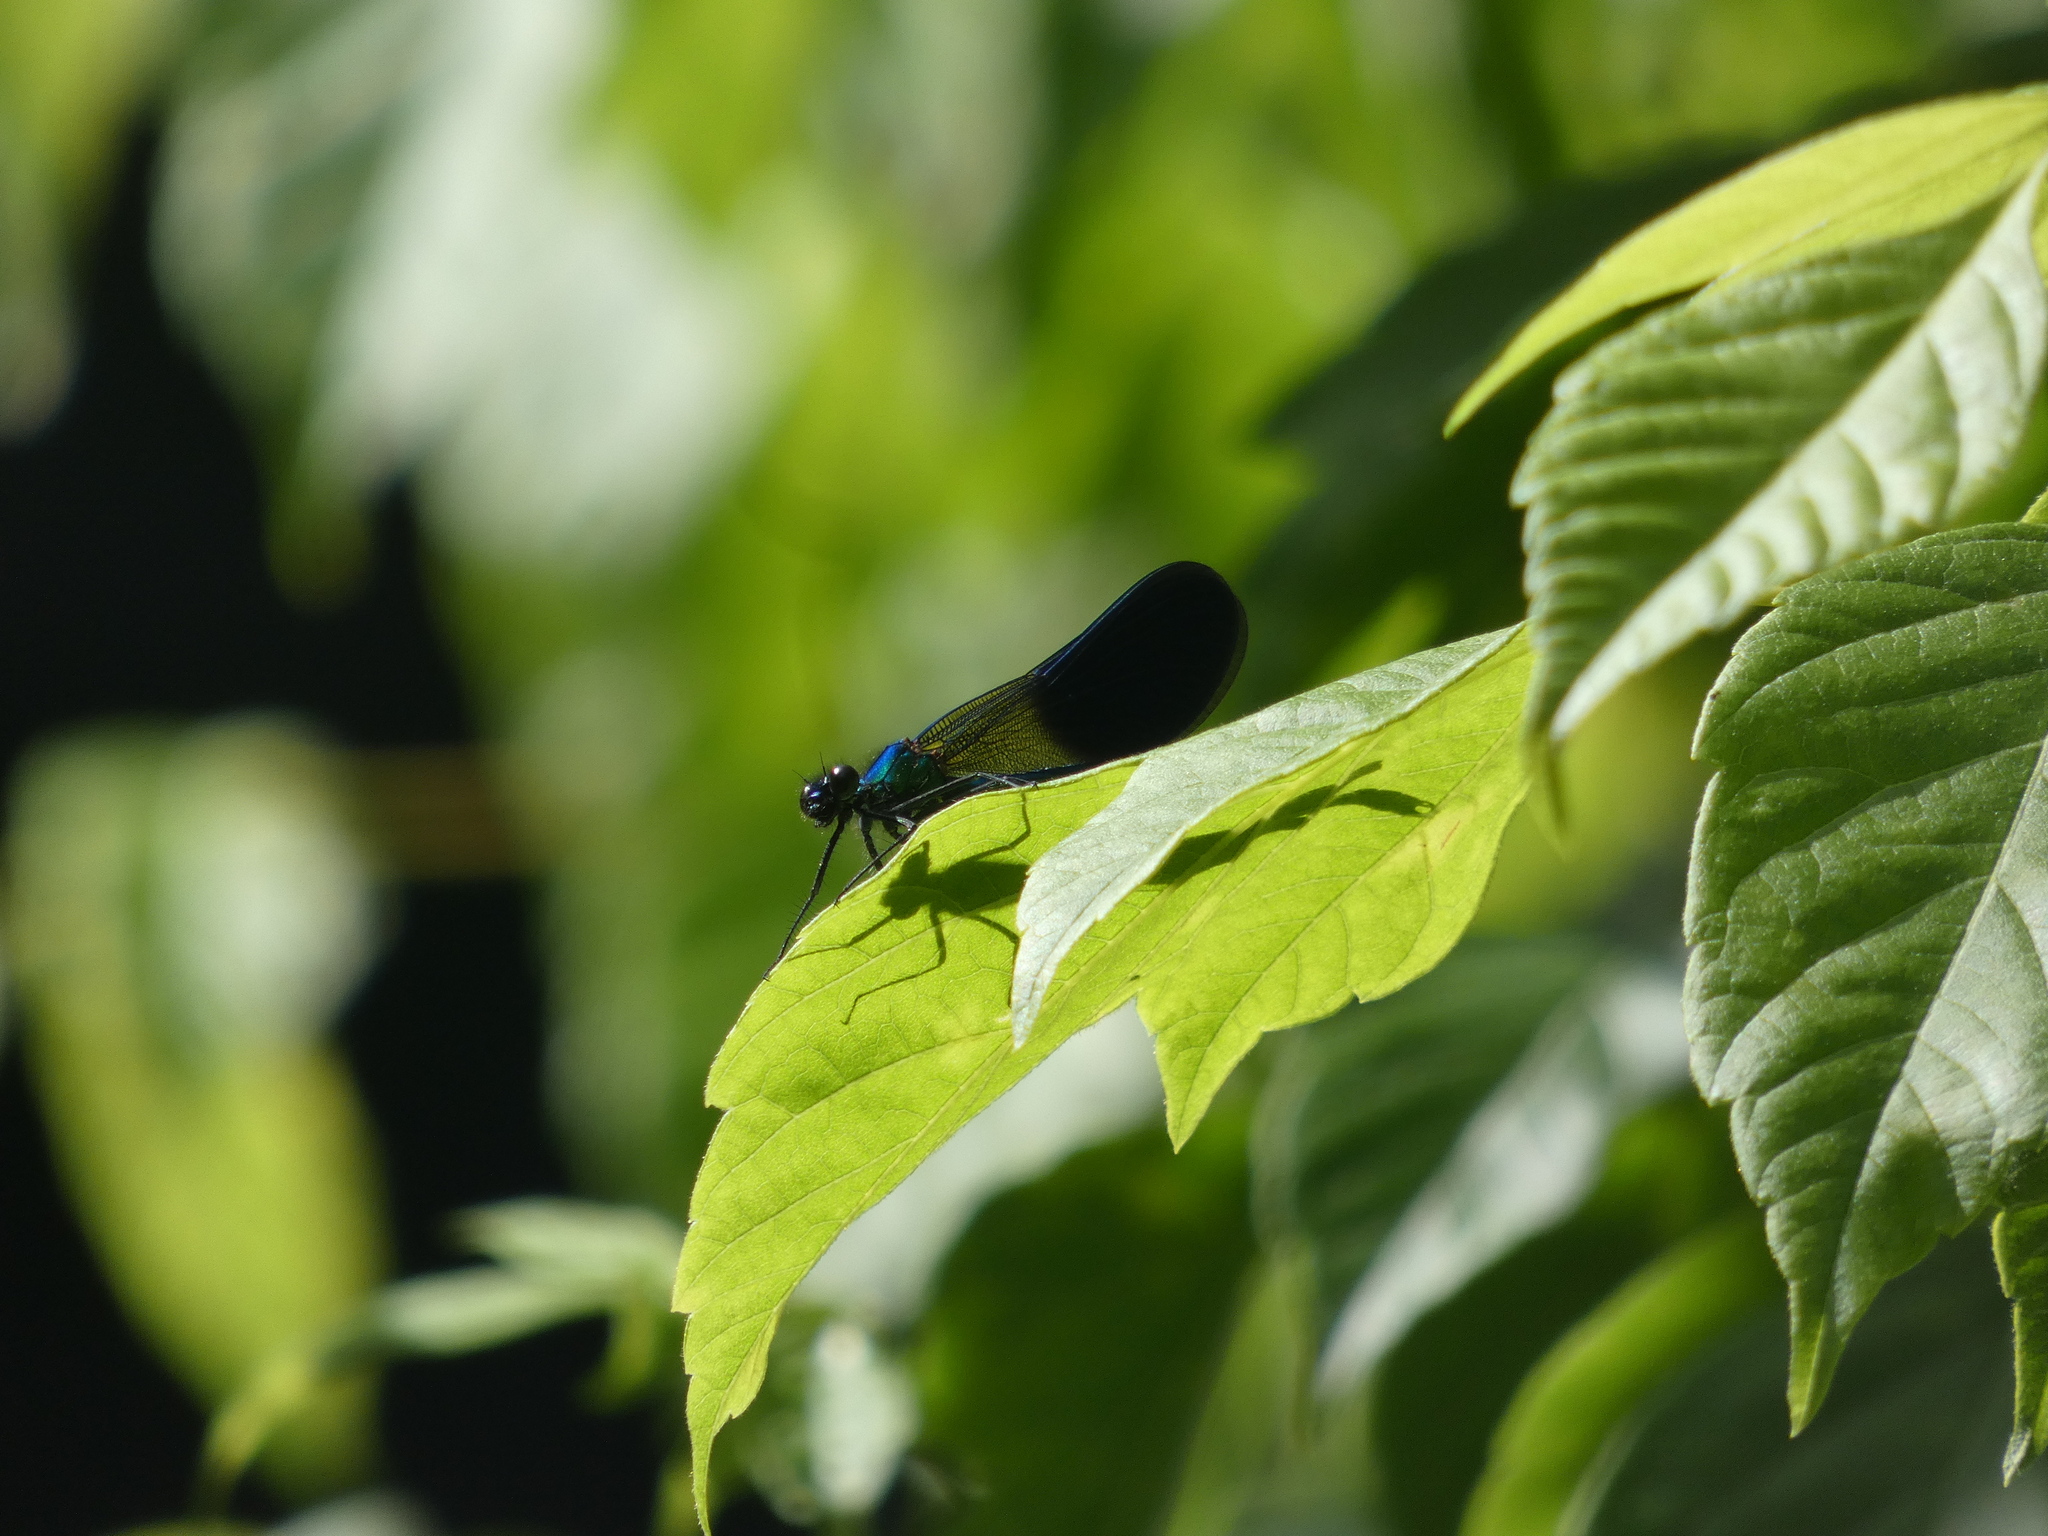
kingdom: Animalia
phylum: Arthropoda
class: Insecta
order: Odonata
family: Calopterygidae
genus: Calopteryx
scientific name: Calopteryx xanthostoma
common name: Western demoiselle
